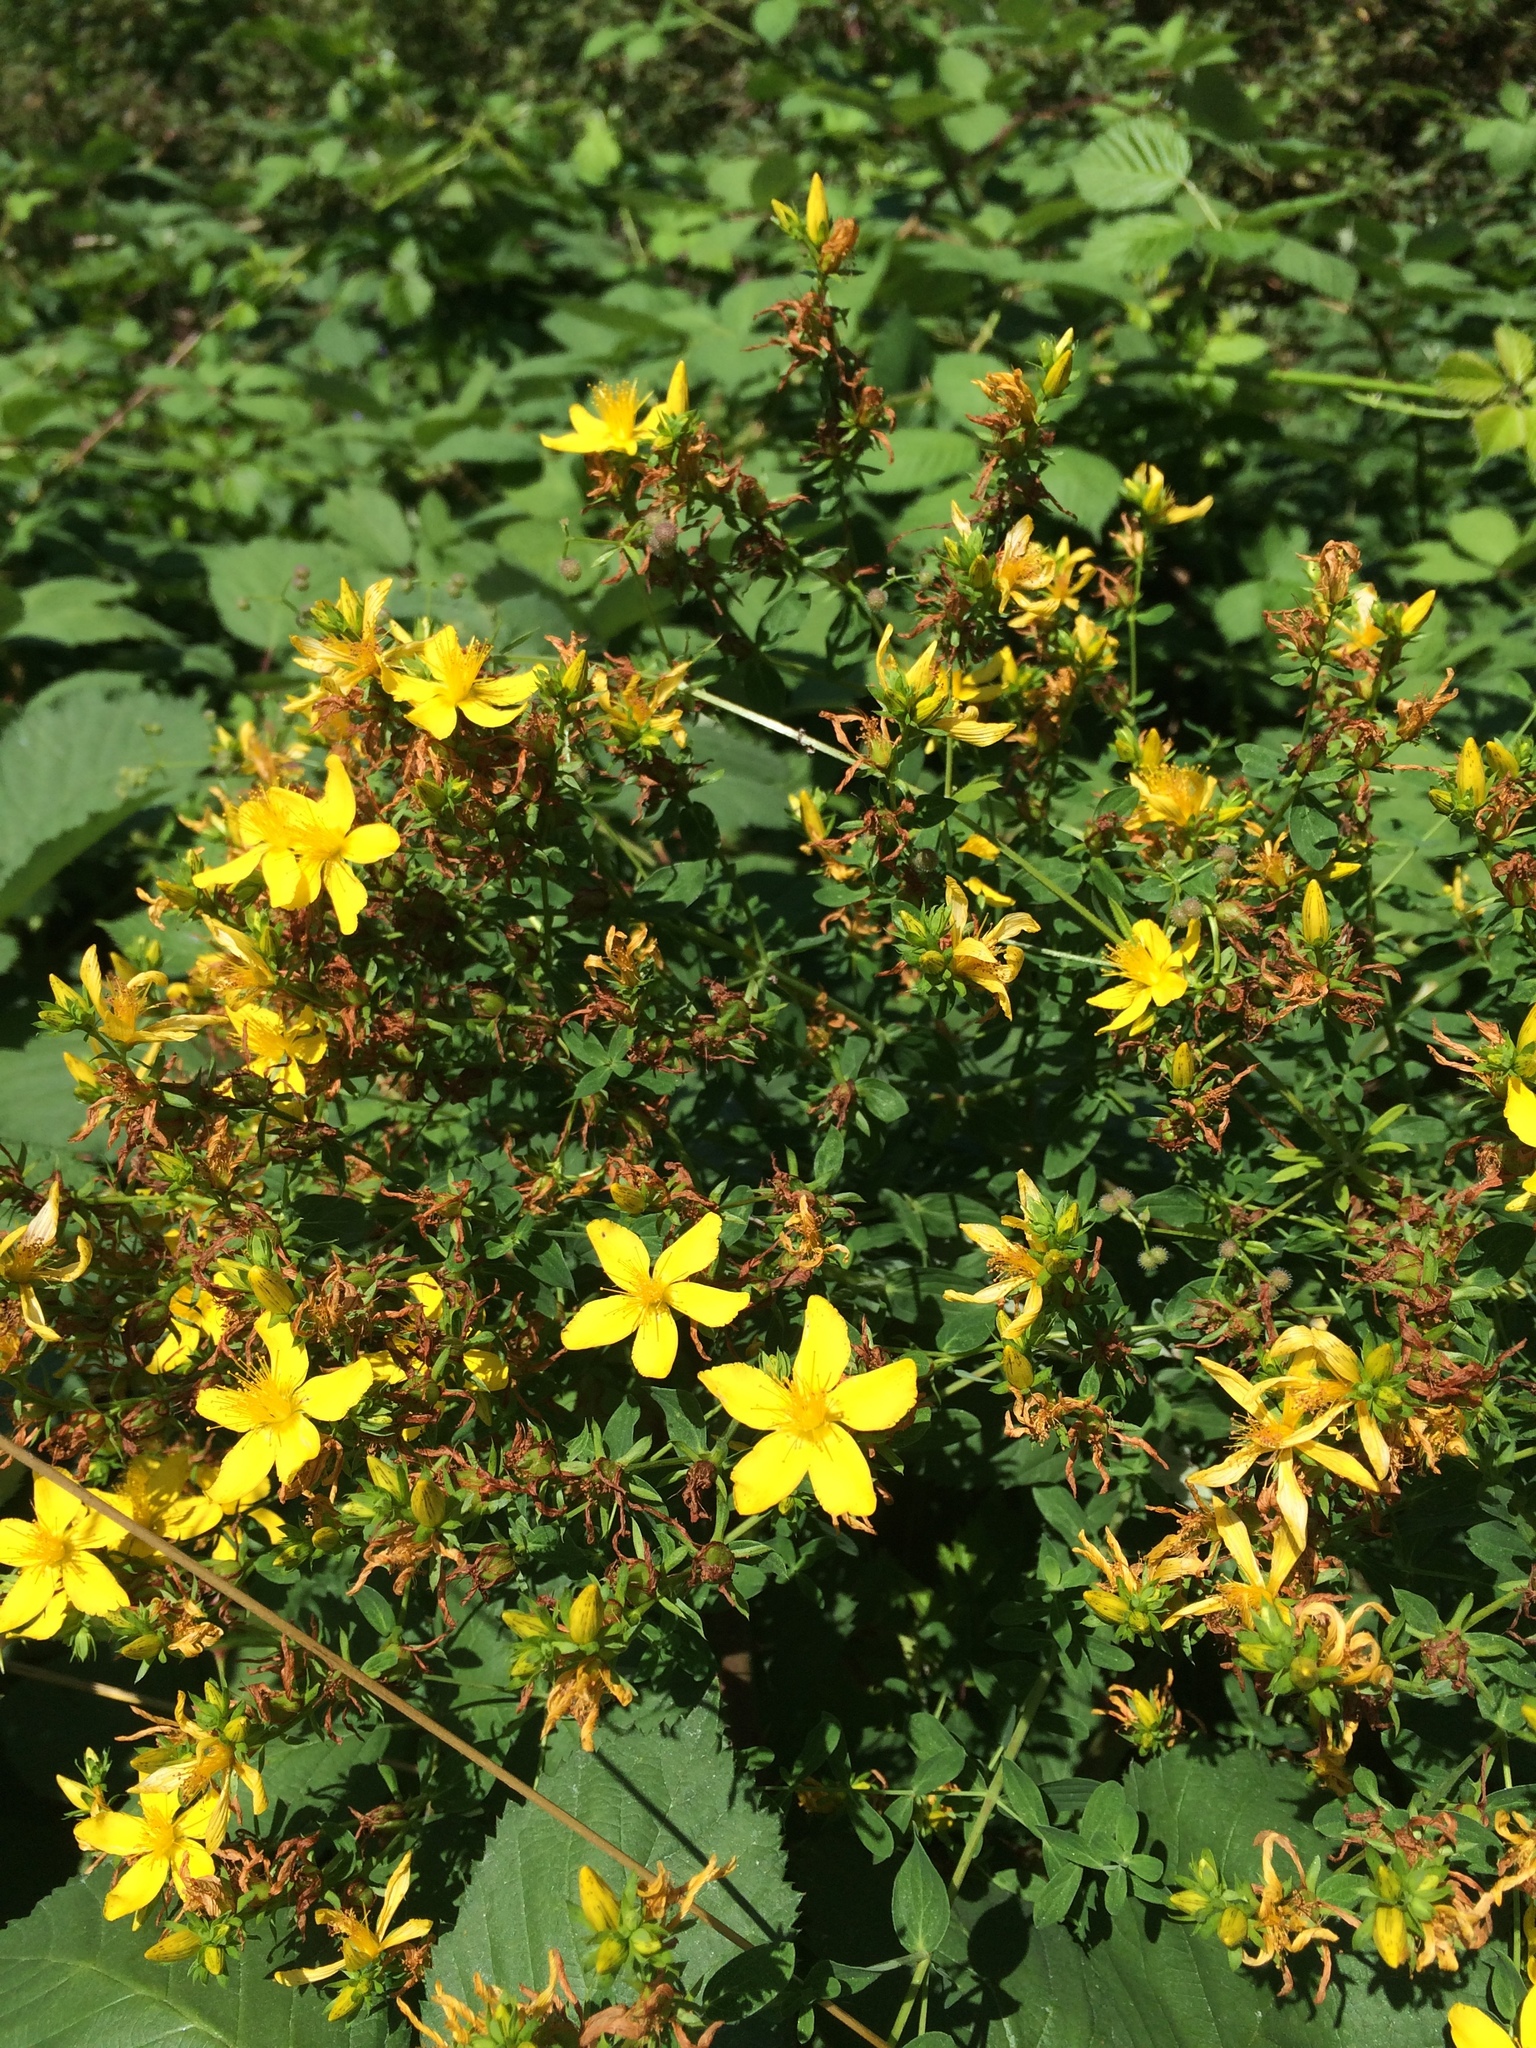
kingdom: Plantae
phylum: Tracheophyta
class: Magnoliopsida
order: Malpighiales
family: Hypericaceae
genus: Hypericum
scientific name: Hypericum perforatum
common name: Common st. johnswort
